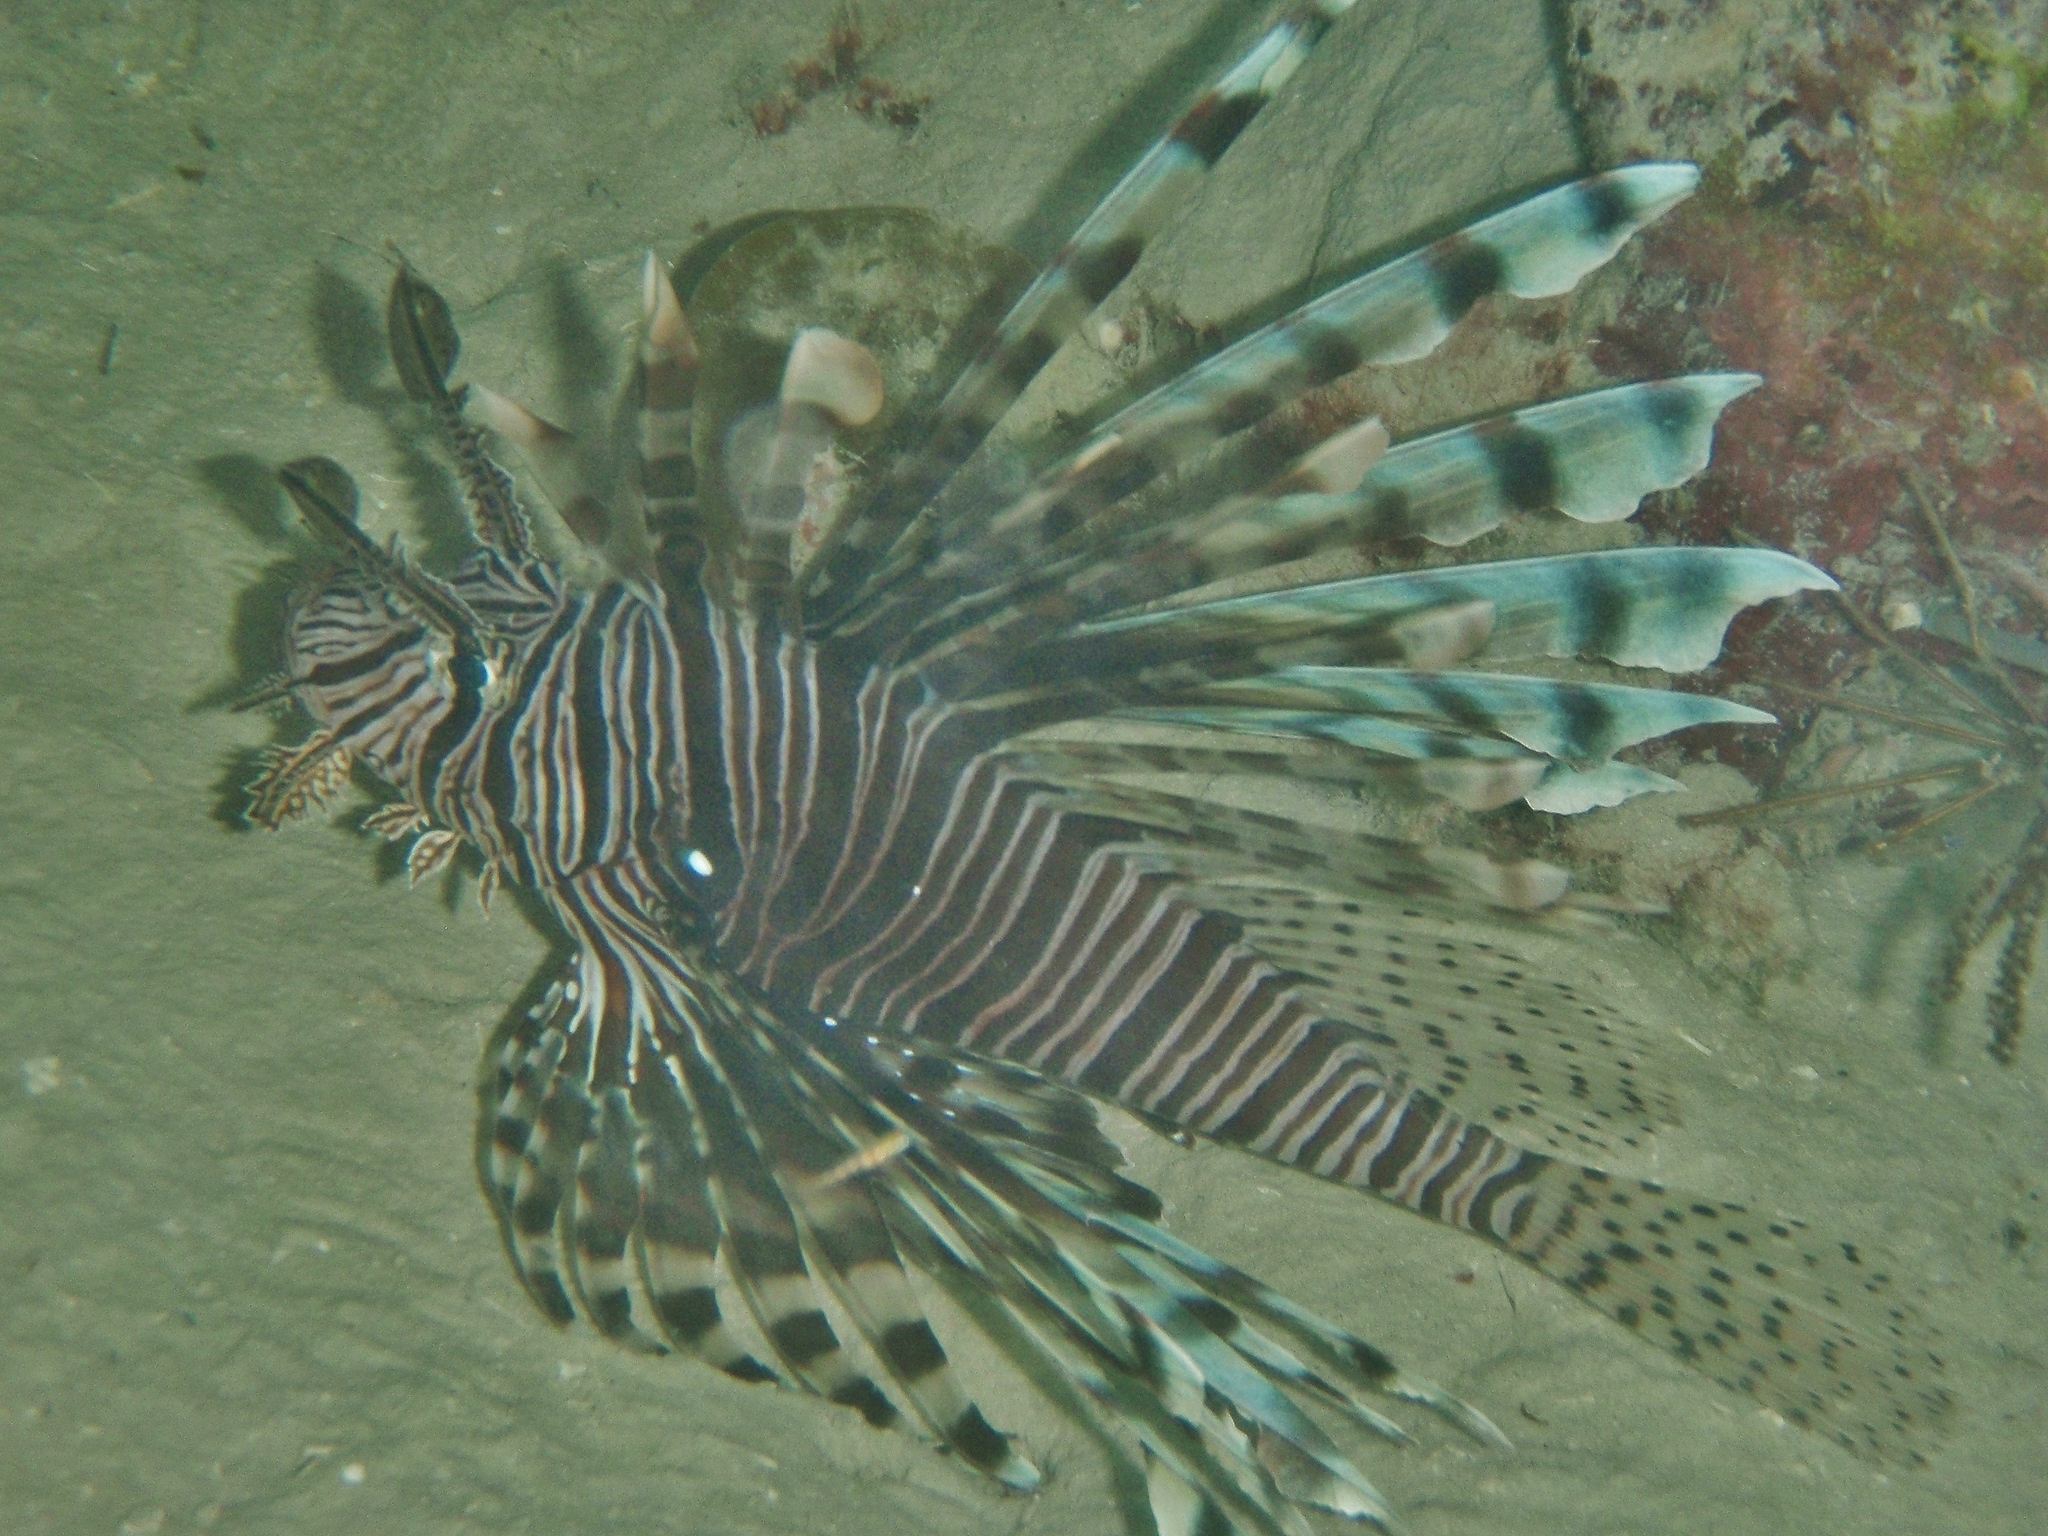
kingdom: Animalia
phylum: Chordata
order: Scorpaeniformes
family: Scorpaenidae
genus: Pterois
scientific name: Pterois volitans
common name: Lionfish
